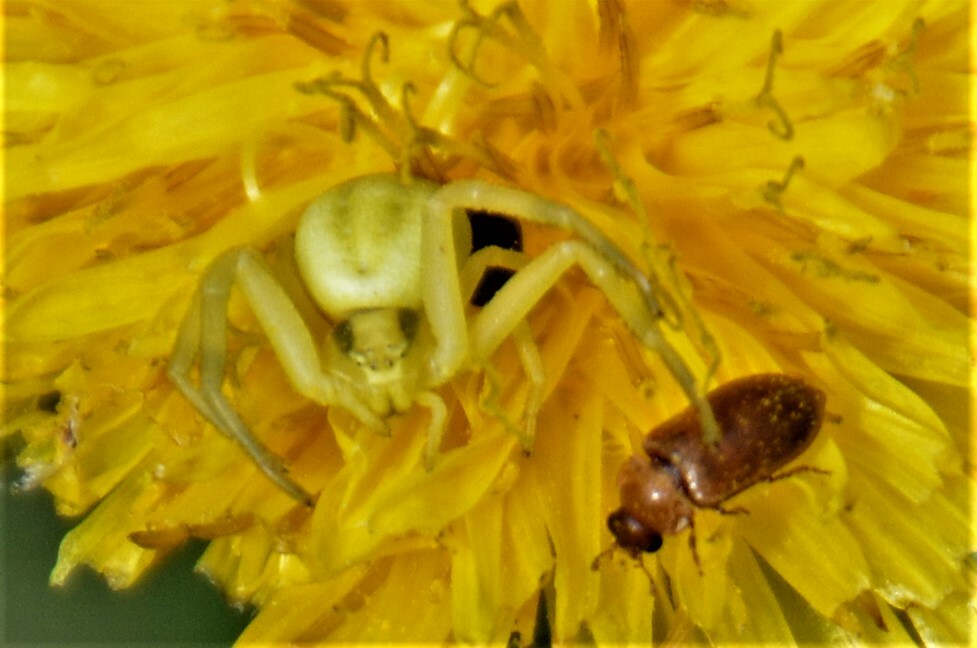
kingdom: Animalia
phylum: Arthropoda
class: Arachnida
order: Araneae
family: Thomisidae
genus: Misumena
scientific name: Misumena vatia
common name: Goldenrod crab spider
